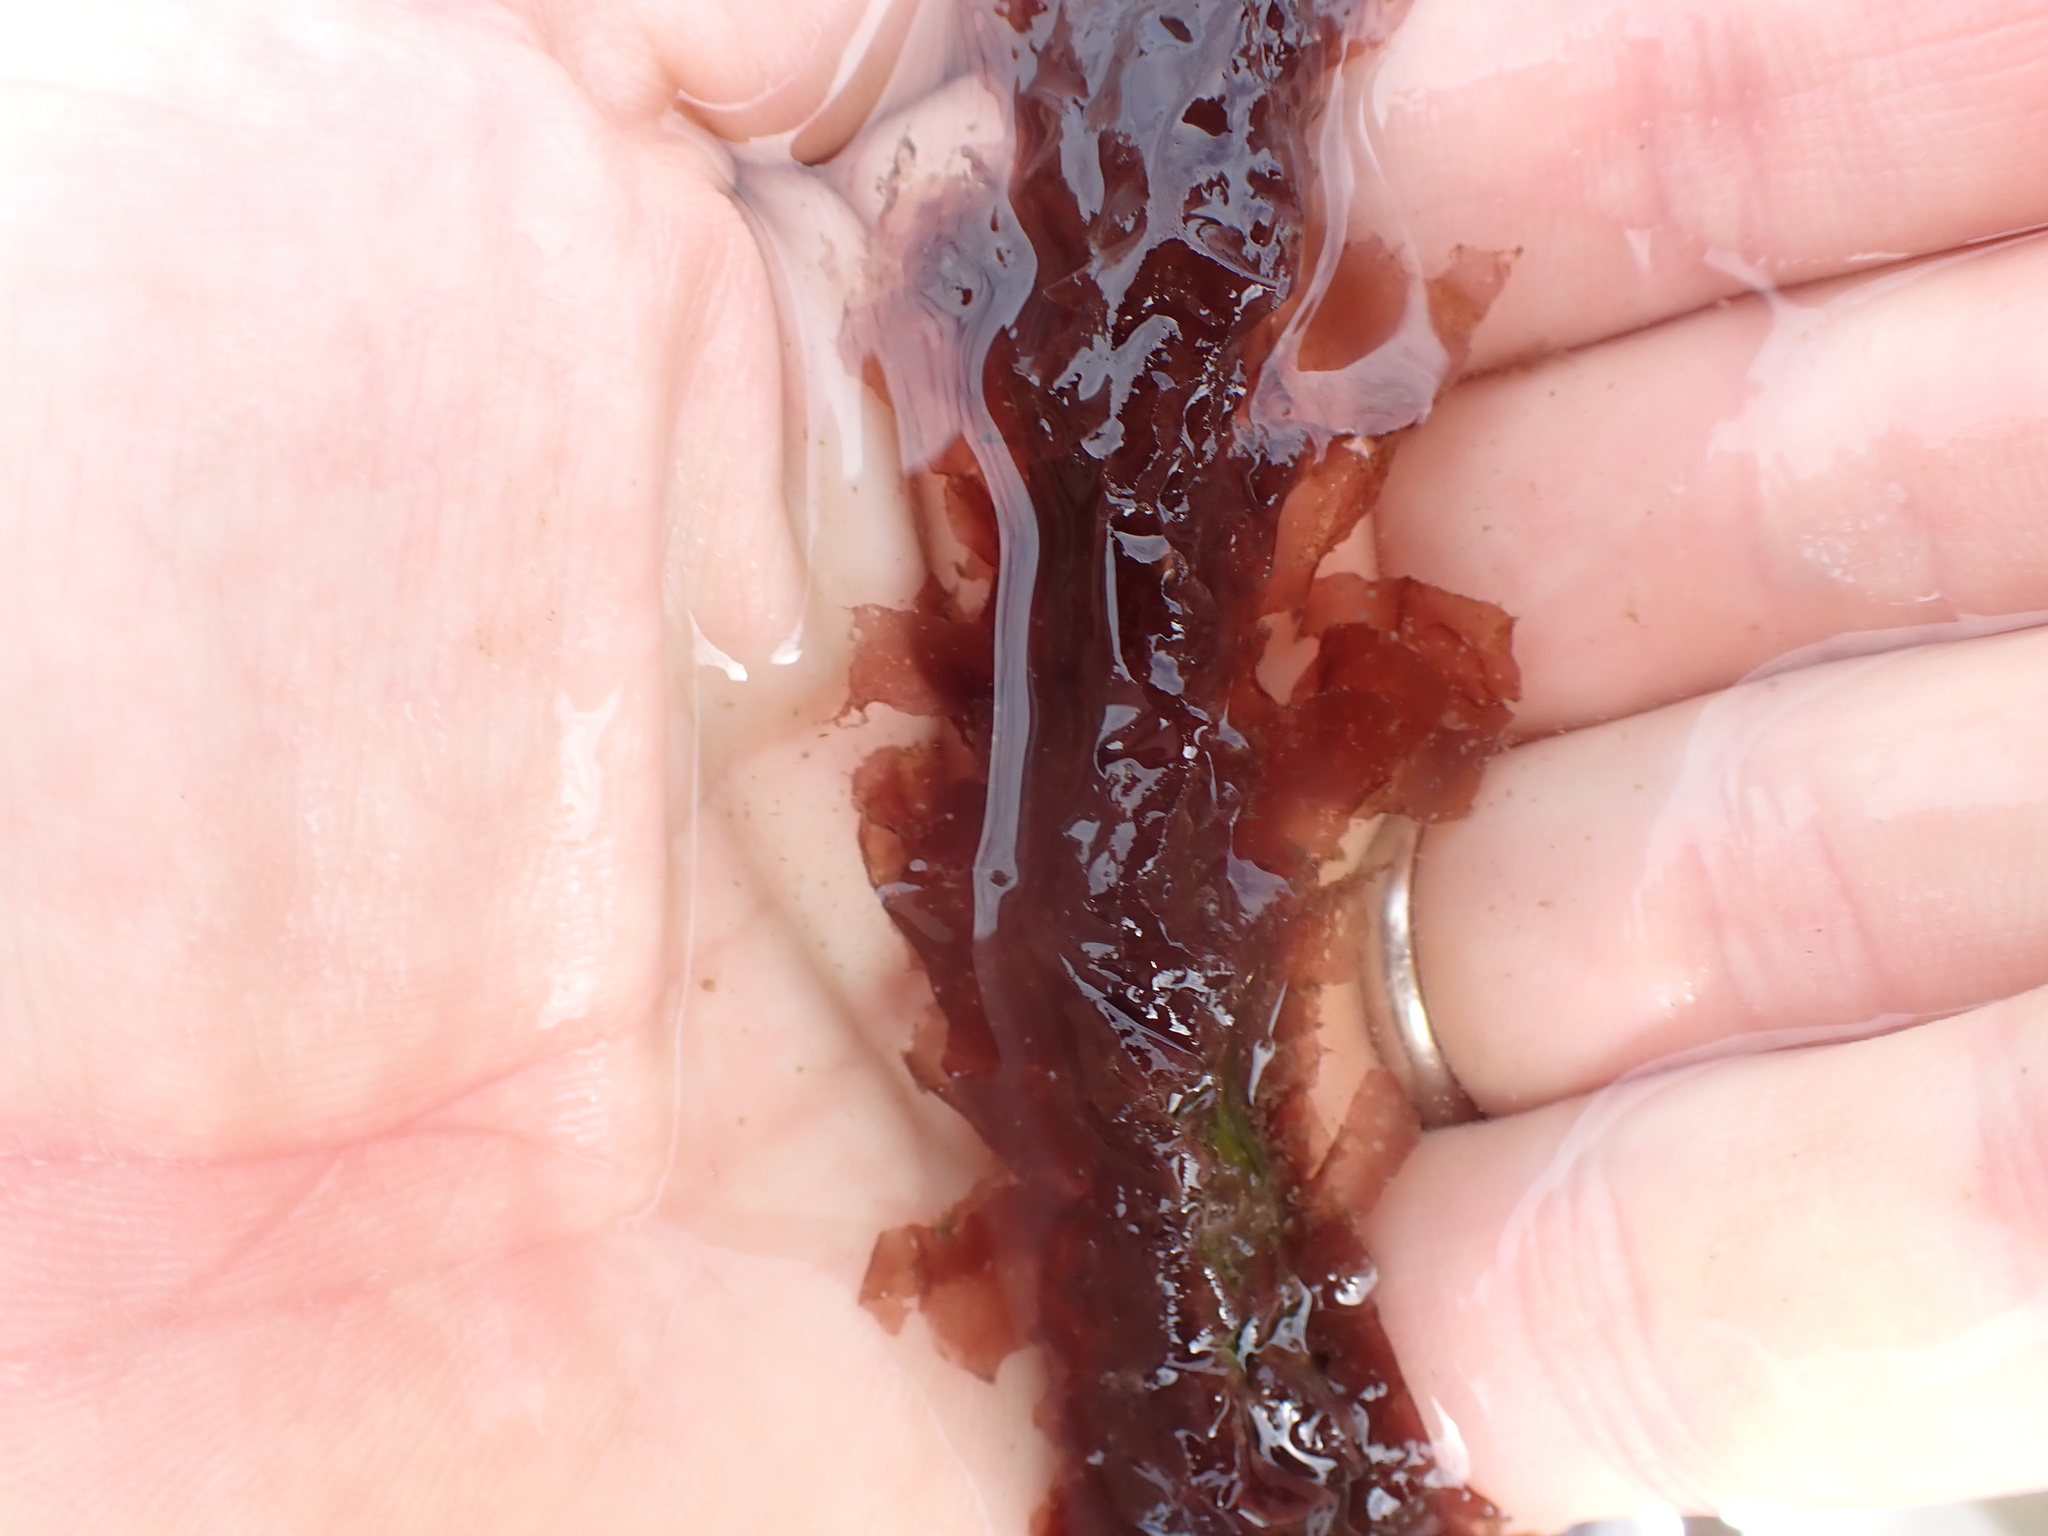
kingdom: Plantae
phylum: Rhodophyta
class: Compsopogonophyceae
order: Erythropeltidales
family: Erythrotrichiaceae
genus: Smithora
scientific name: Smithora naiadum
